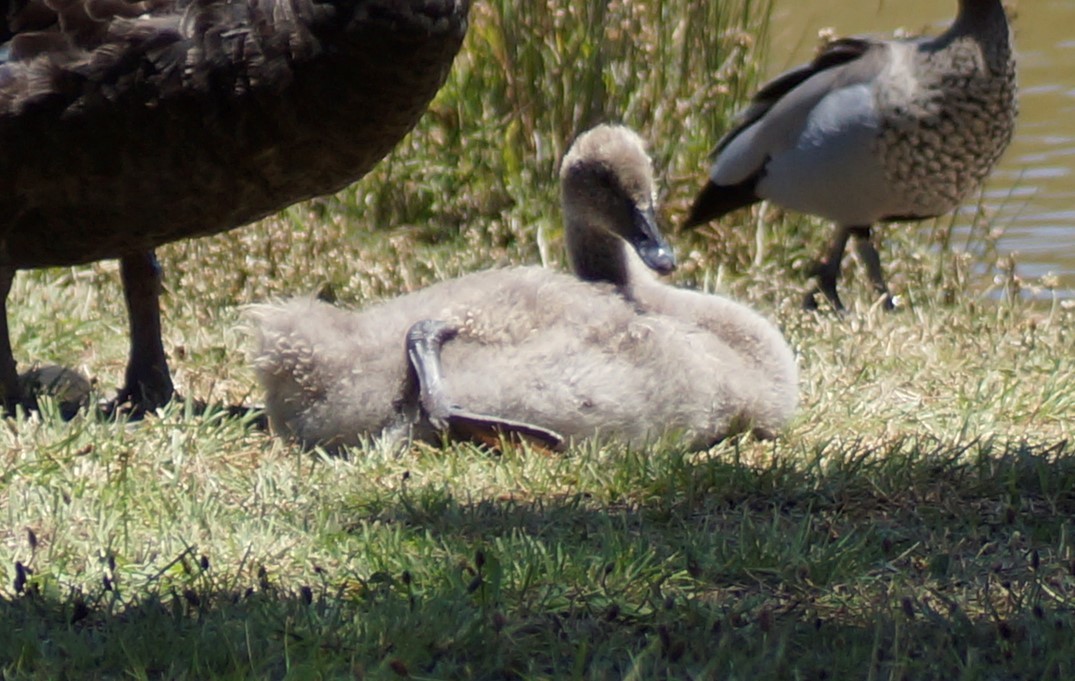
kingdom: Animalia
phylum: Chordata
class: Aves
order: Anseriformes
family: Anatidae
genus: Cygnus
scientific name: Cygnus atratus
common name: Black swan
